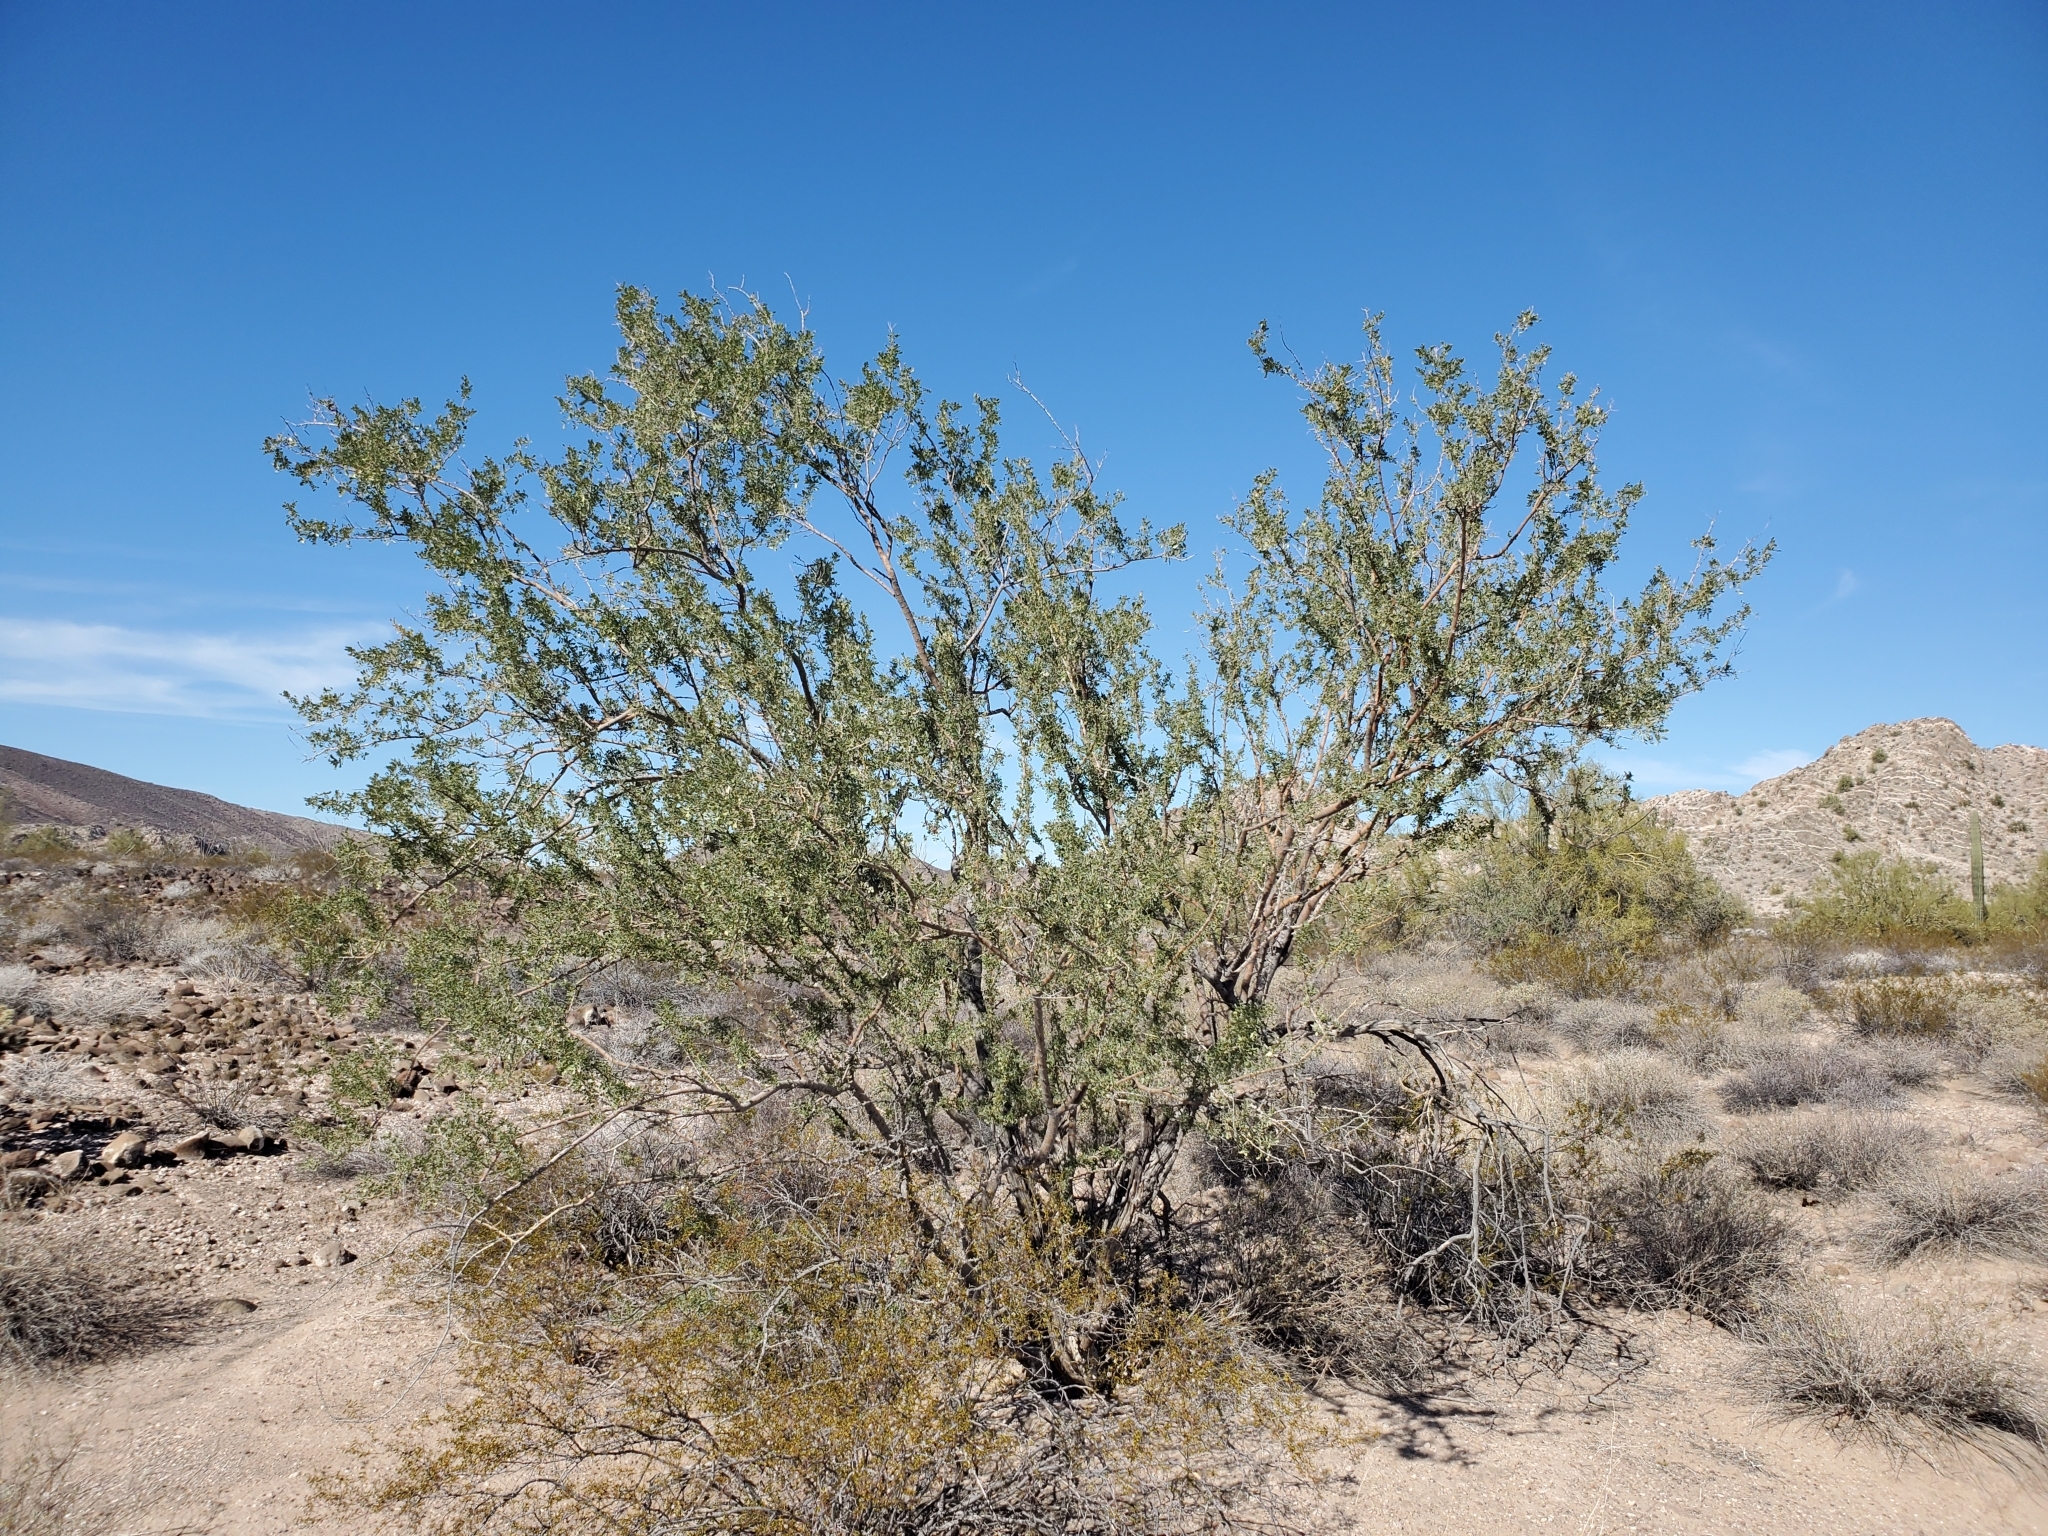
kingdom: Plantae
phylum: Tracheophyta
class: Magnoliopsida
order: Fabales
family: Fabaceae
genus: Olneya
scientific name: Olneya tesota
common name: Desert ironwood
